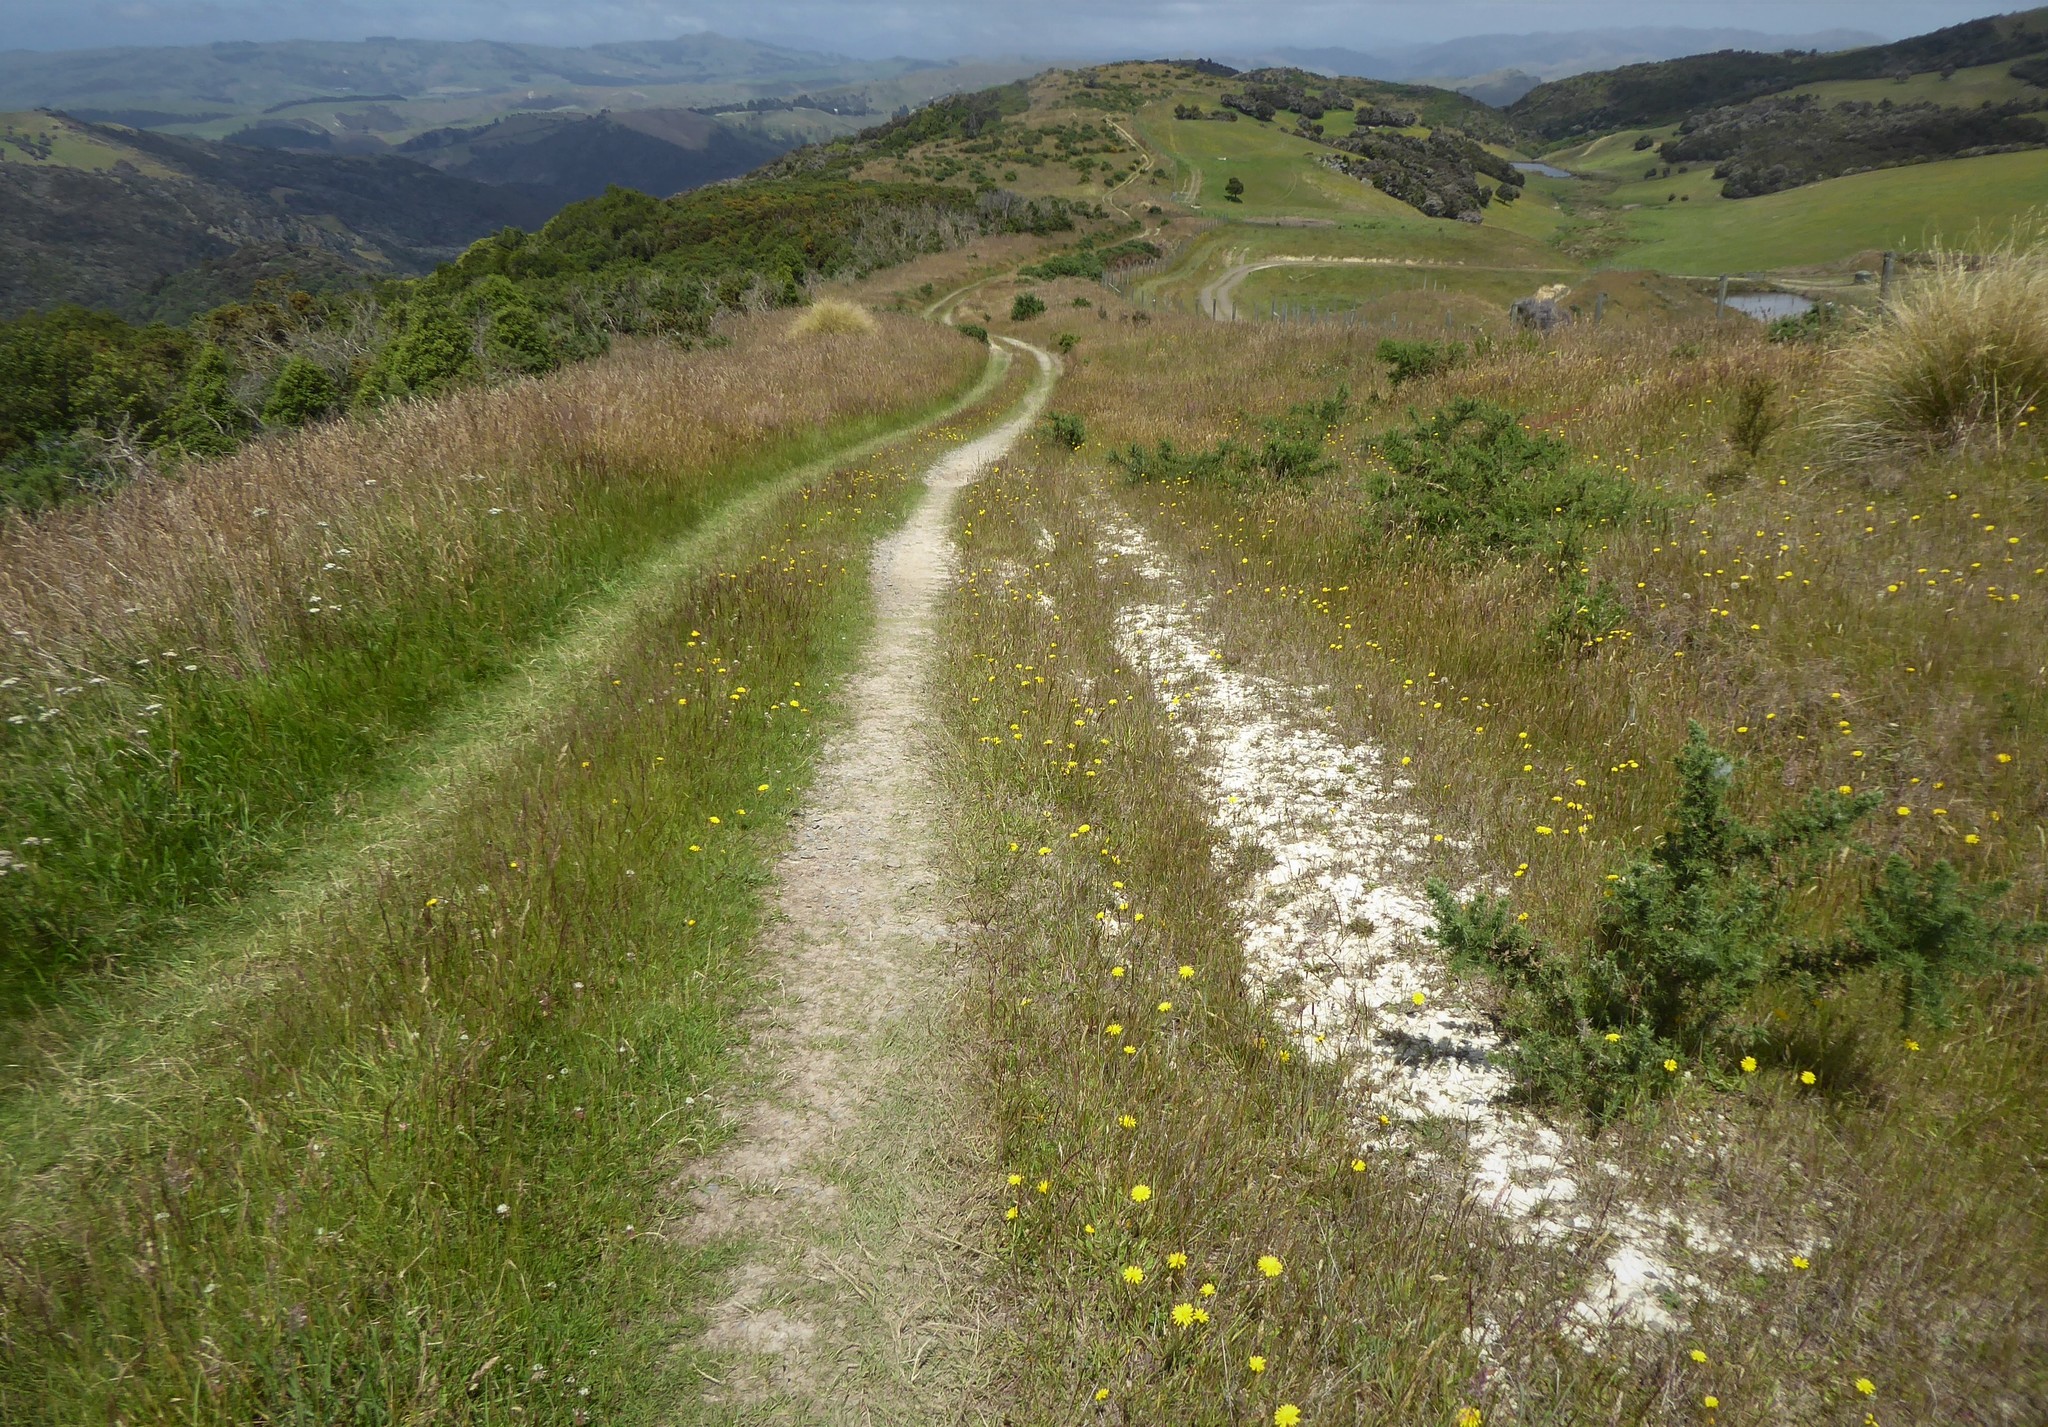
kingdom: Animalia
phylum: Arthropoda
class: Insecta
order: Coleoptera
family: Carabidae
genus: Neocicindela
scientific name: Neocicindela latecincta
